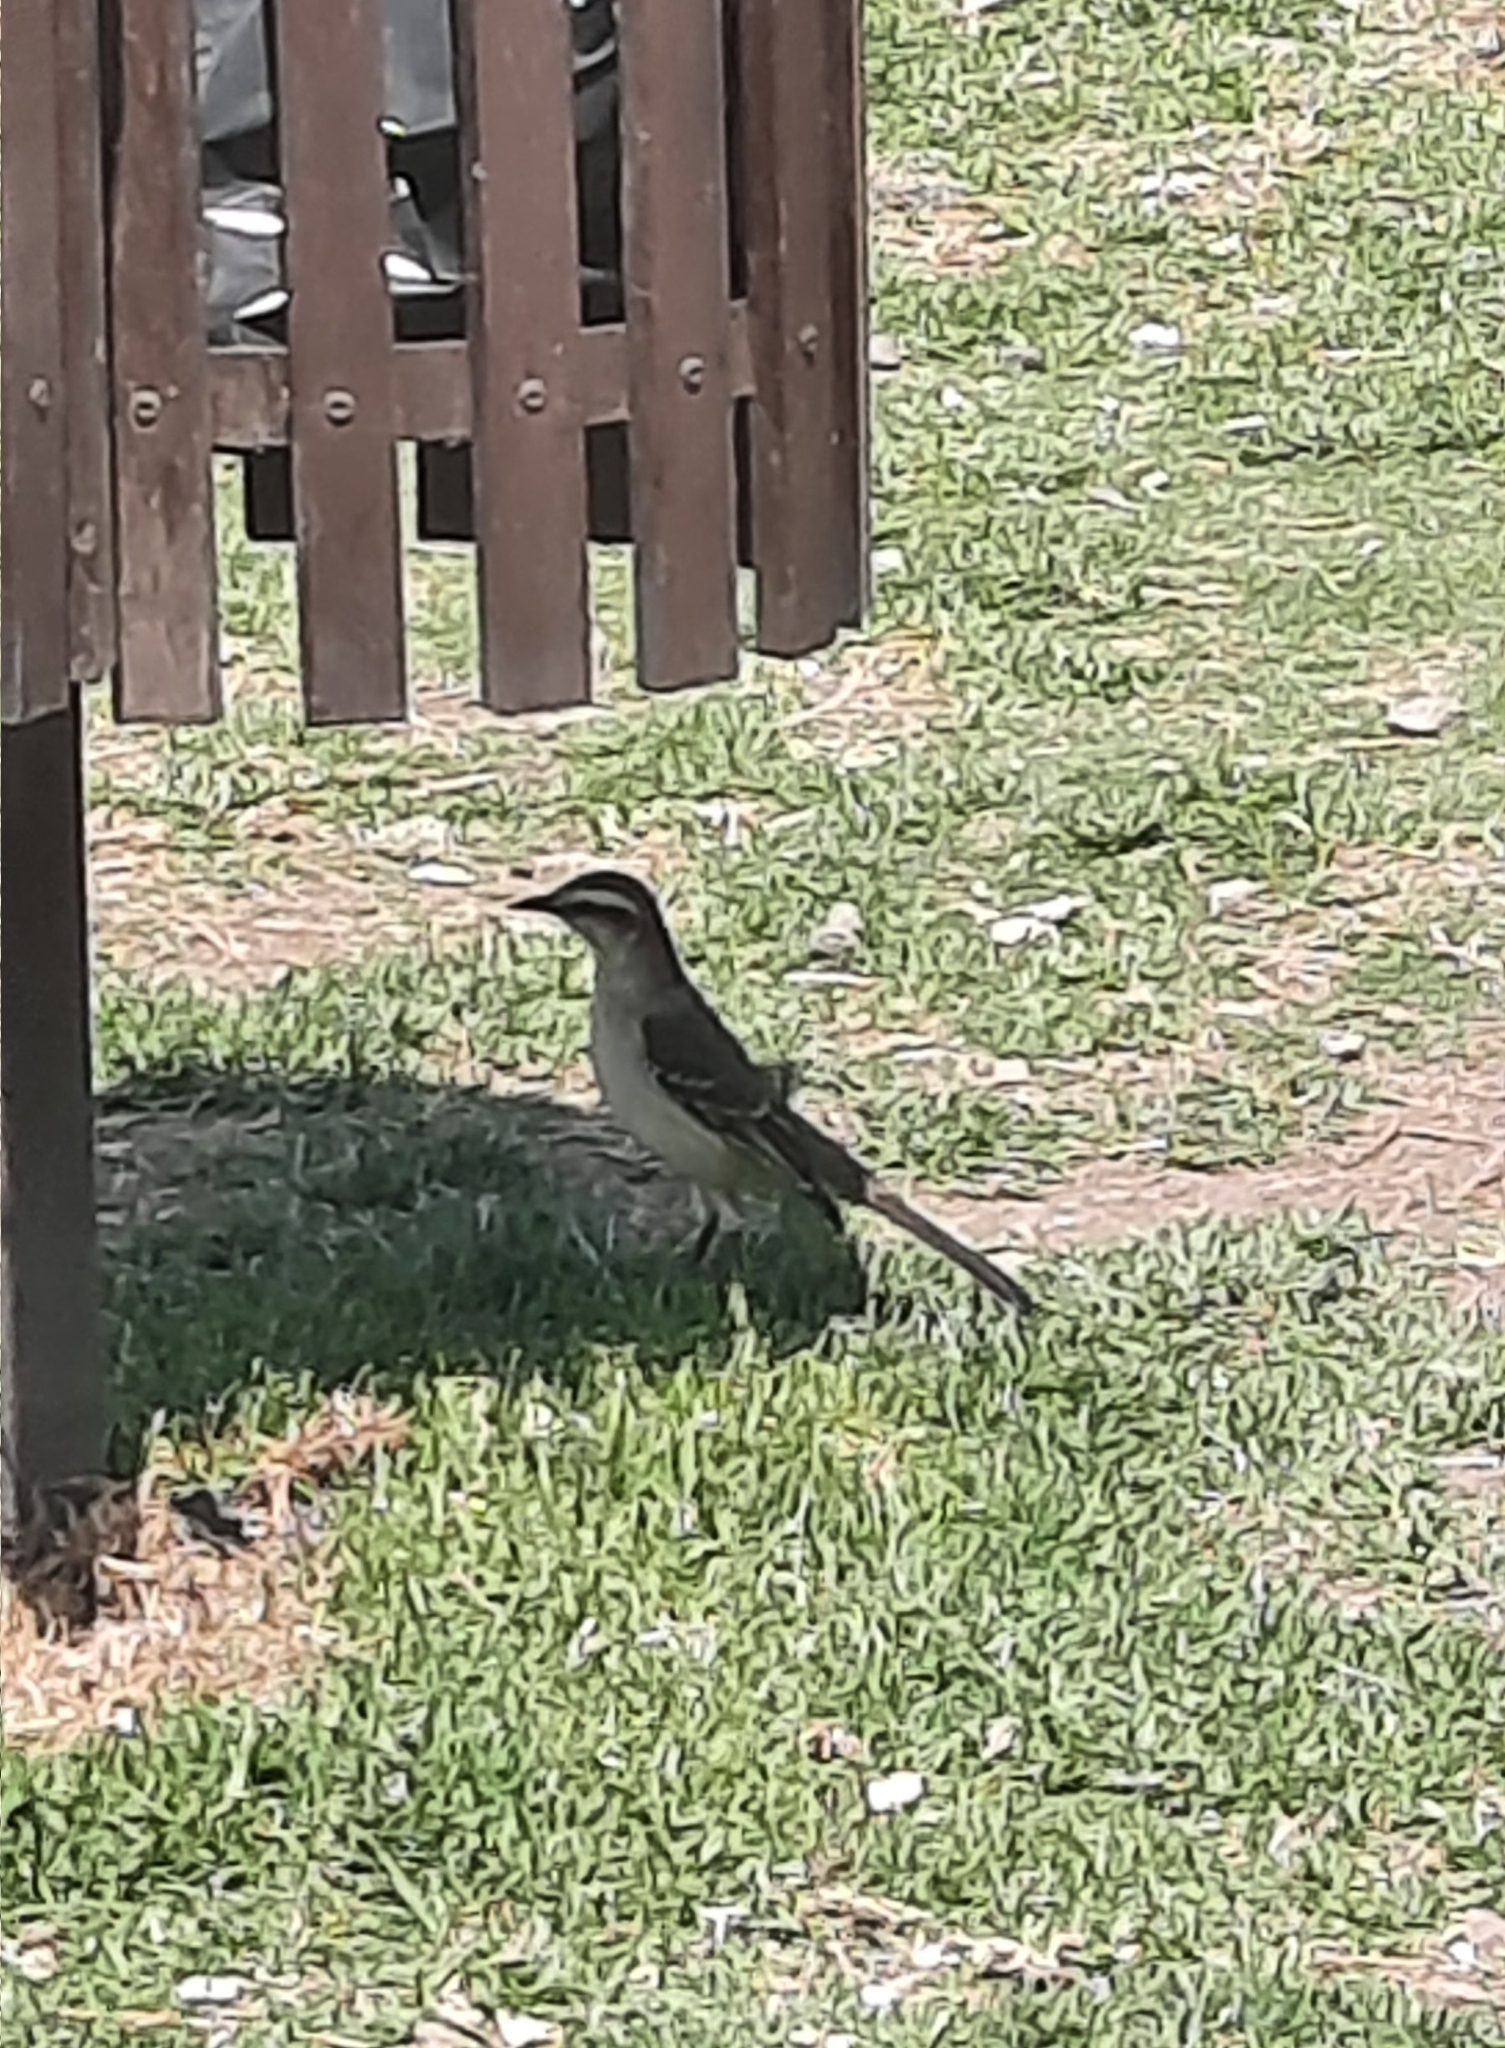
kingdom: Animalia
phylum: Chordata
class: Aves
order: Passeriformes
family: Mimidae
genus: Mimus
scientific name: Mimus saturninus
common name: Chalk-browed mockingbird
